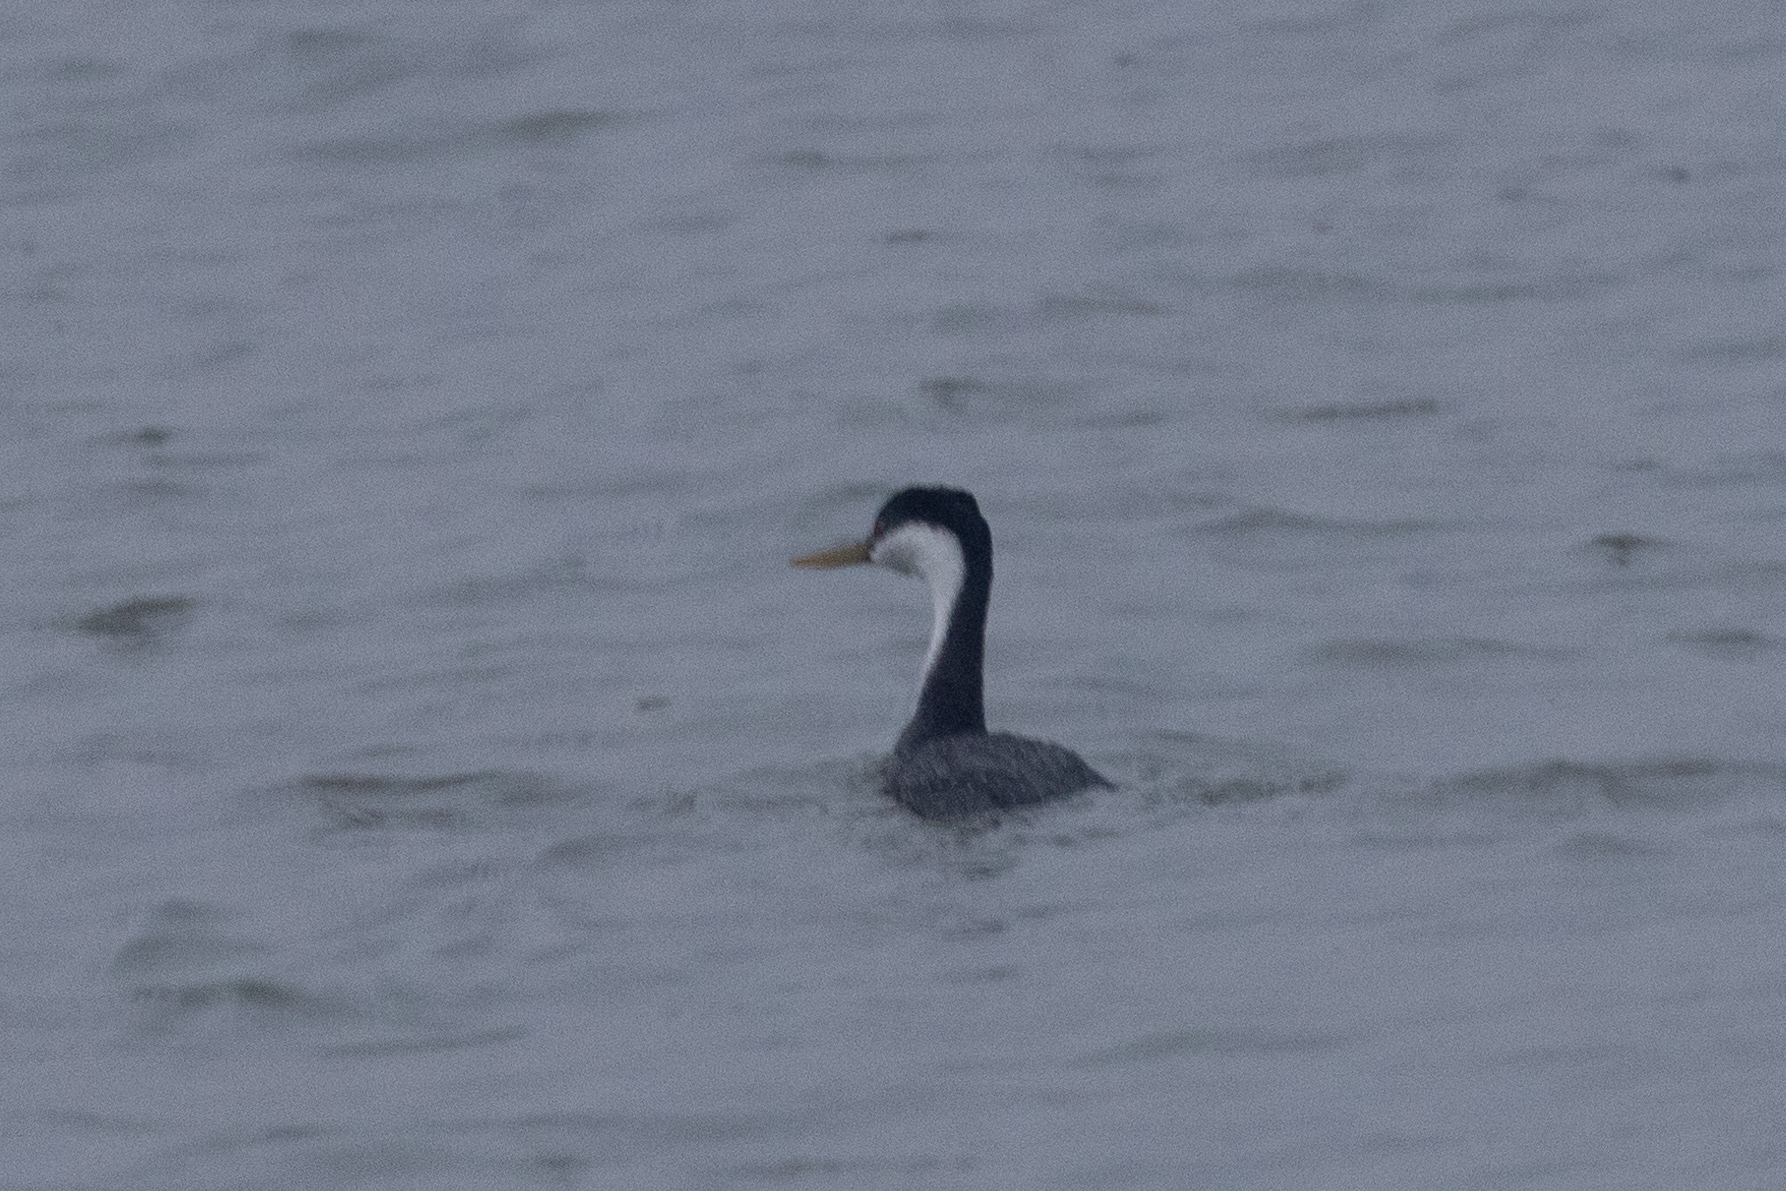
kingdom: Animalia
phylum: Chordata
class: Aves
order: Podicipediformes
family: Podicipedidae
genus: Aechmophorus
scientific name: Aechmophorus occidentalis
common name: Western grebe
